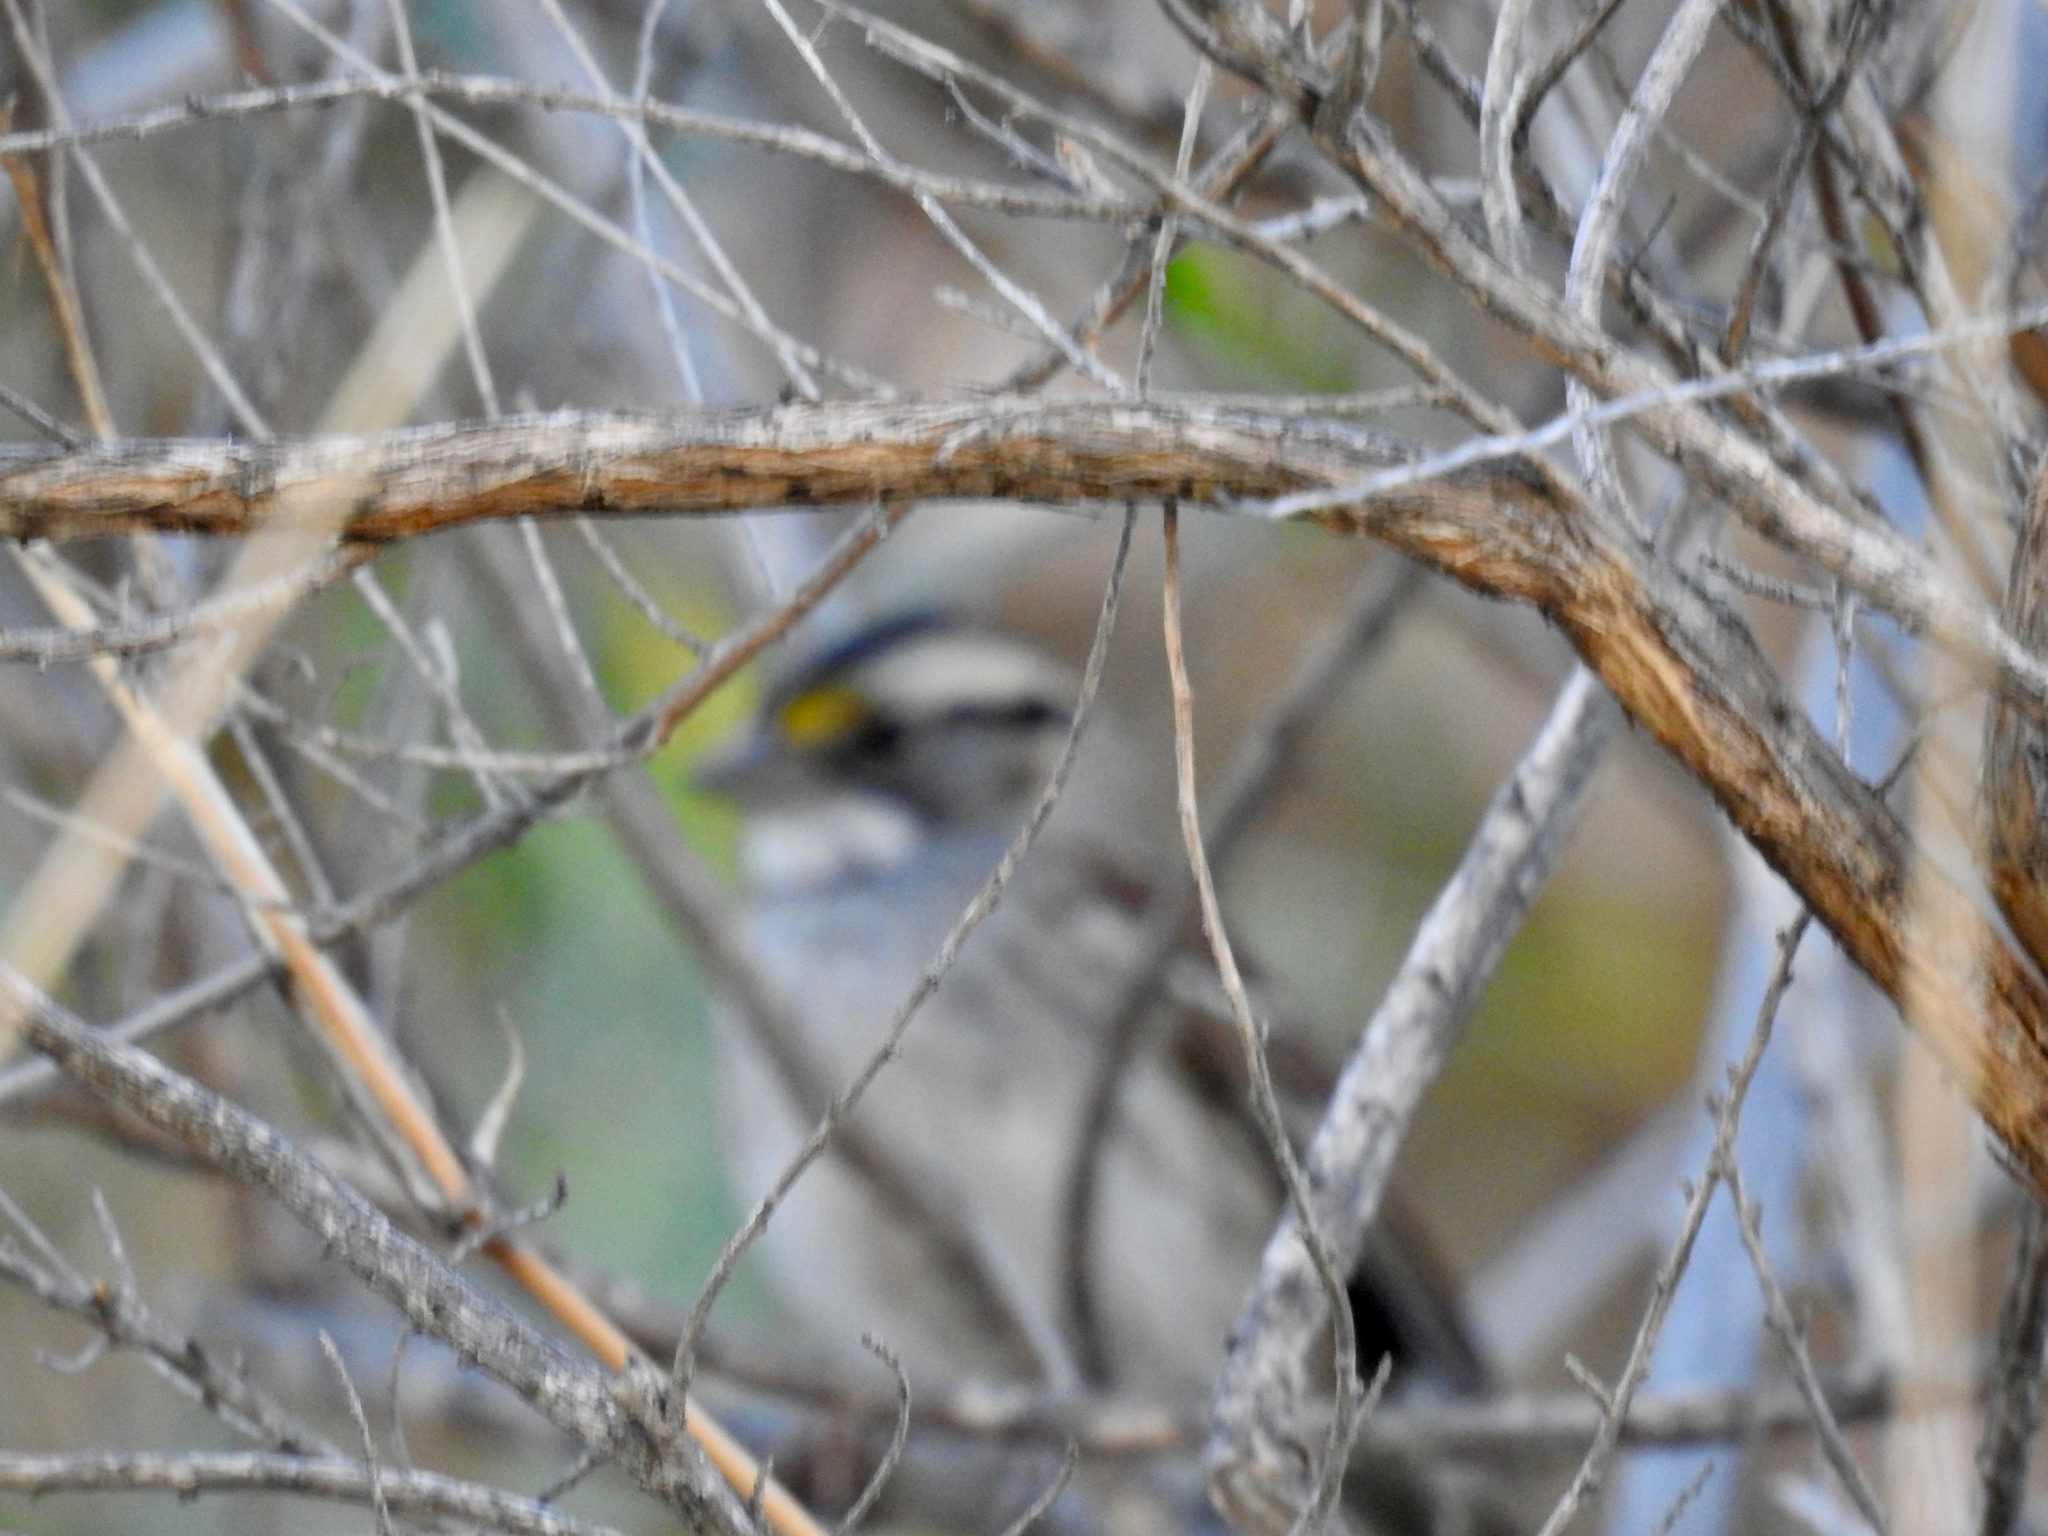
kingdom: Animalia
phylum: Chordata
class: Aves
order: Passeriformes
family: Passerellidae
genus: Zonotrichia
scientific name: Zonotrichia albicollis
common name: White-throated sparrow
